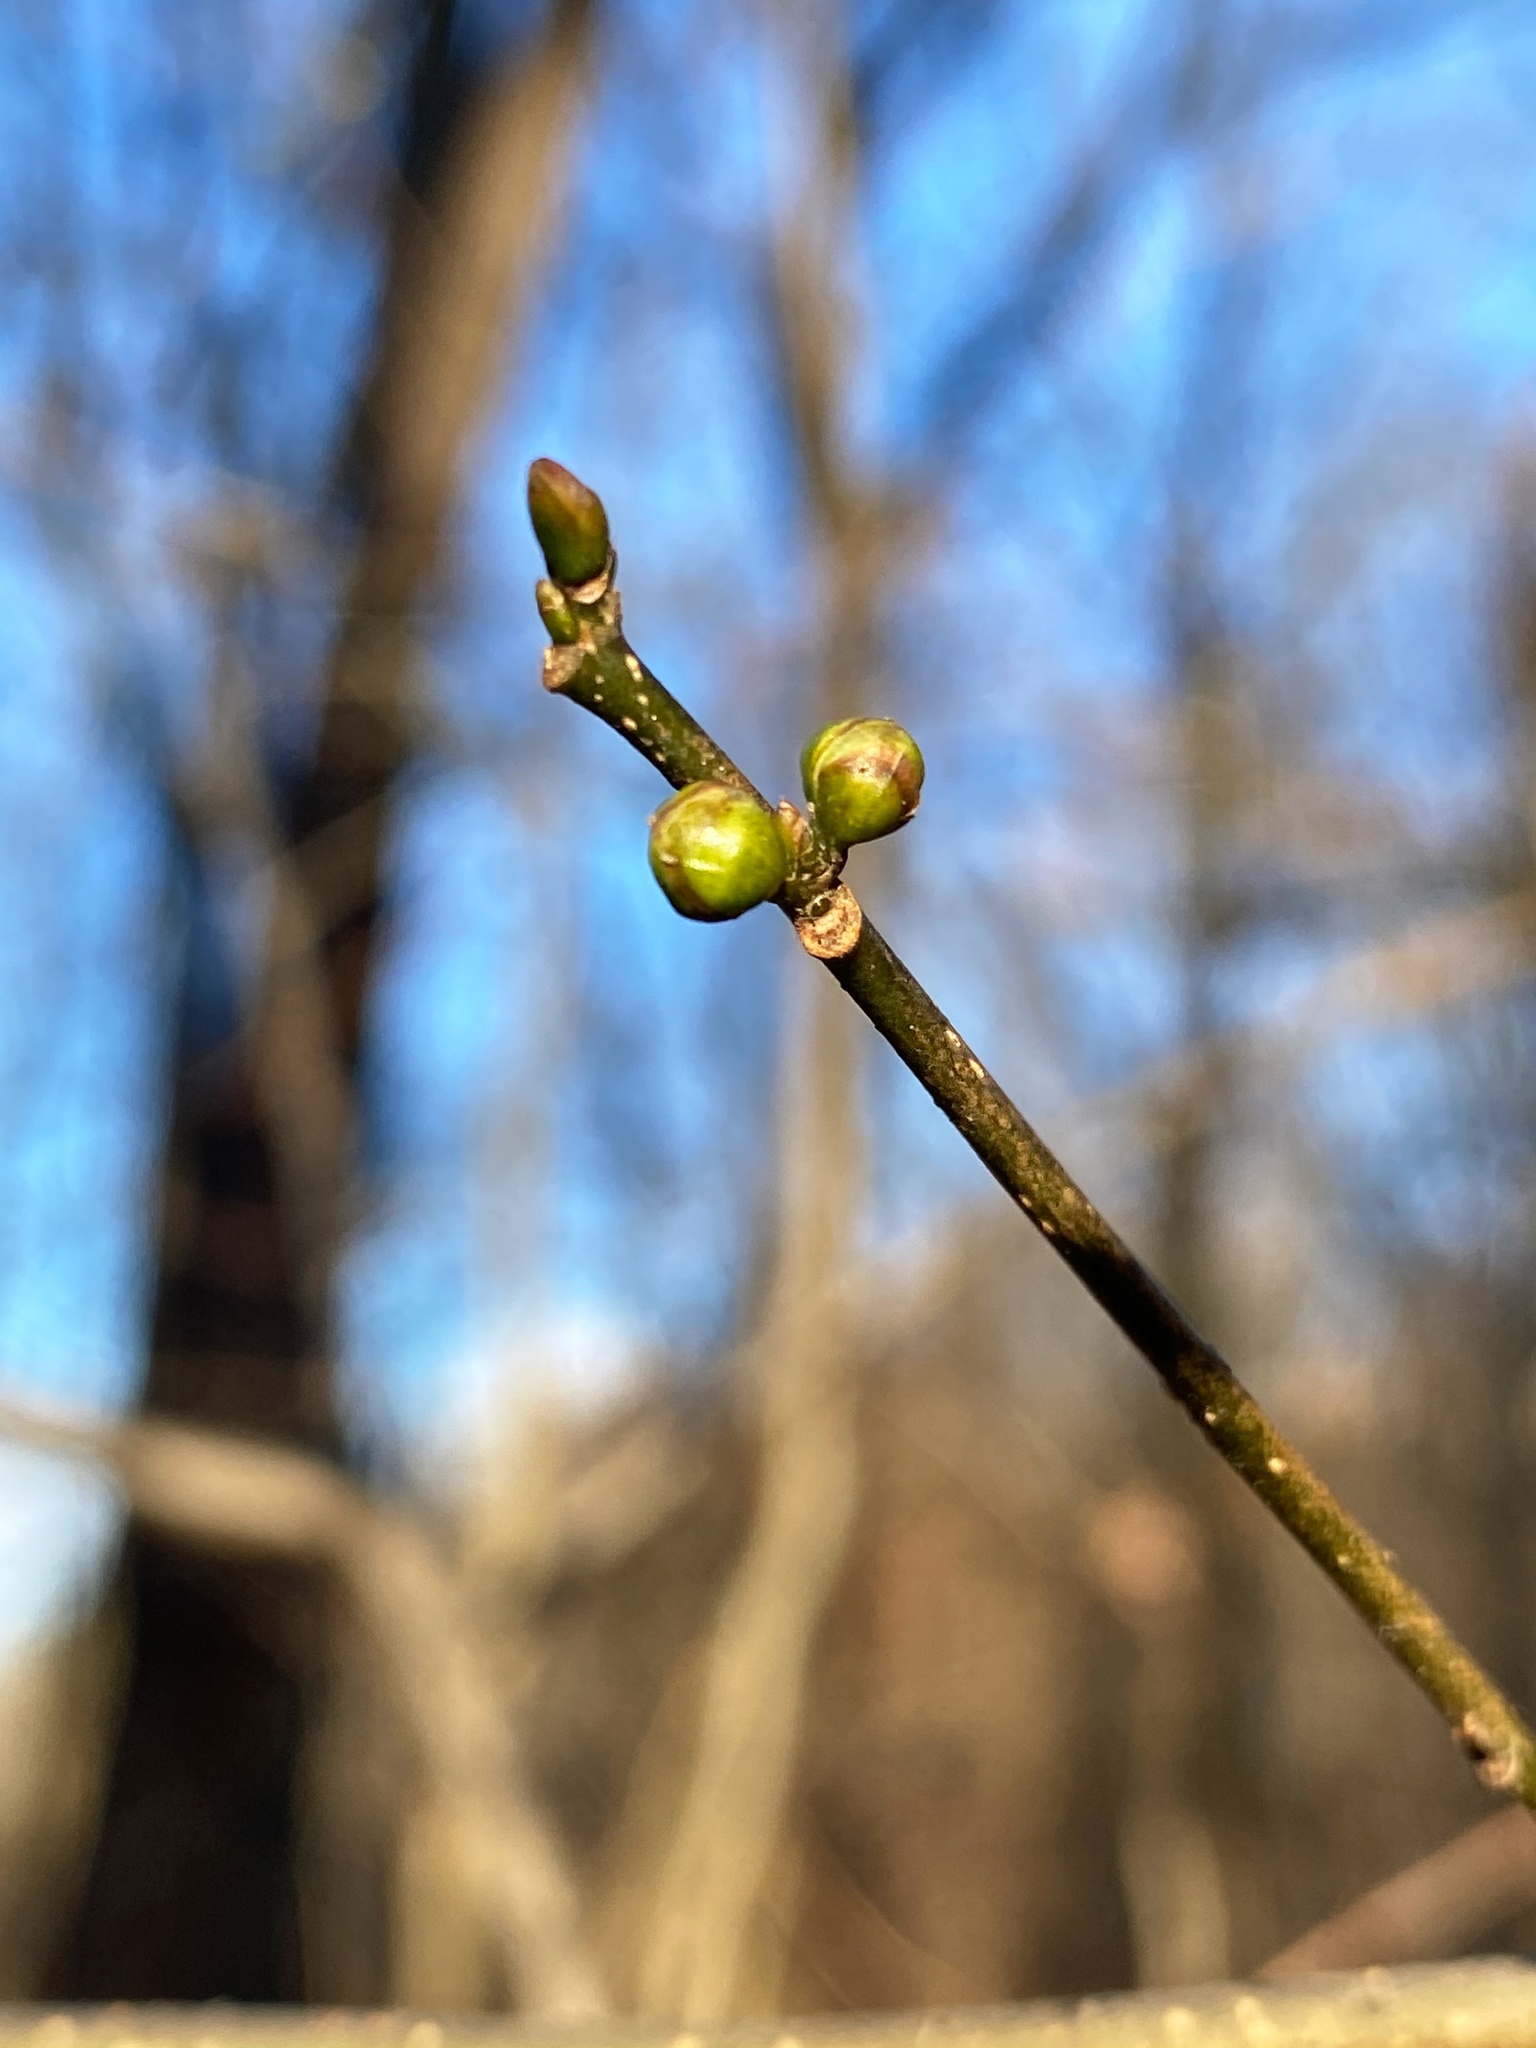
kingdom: Plantae
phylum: Tracheophyta
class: Magnoliopsida
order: Laurales
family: Lauraceae
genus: Lindera
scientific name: Lindera benzoin
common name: Spicebush
